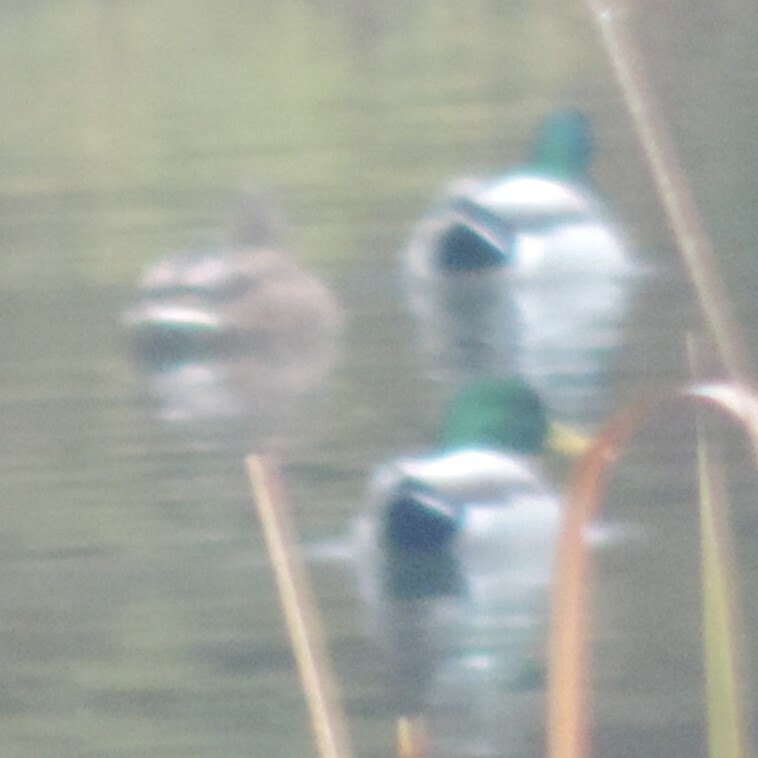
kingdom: Animalia
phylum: Chordata
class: Aves
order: Anseriformes
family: Anatidae
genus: Anas
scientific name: Anas platyrhynchos
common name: Mallard
